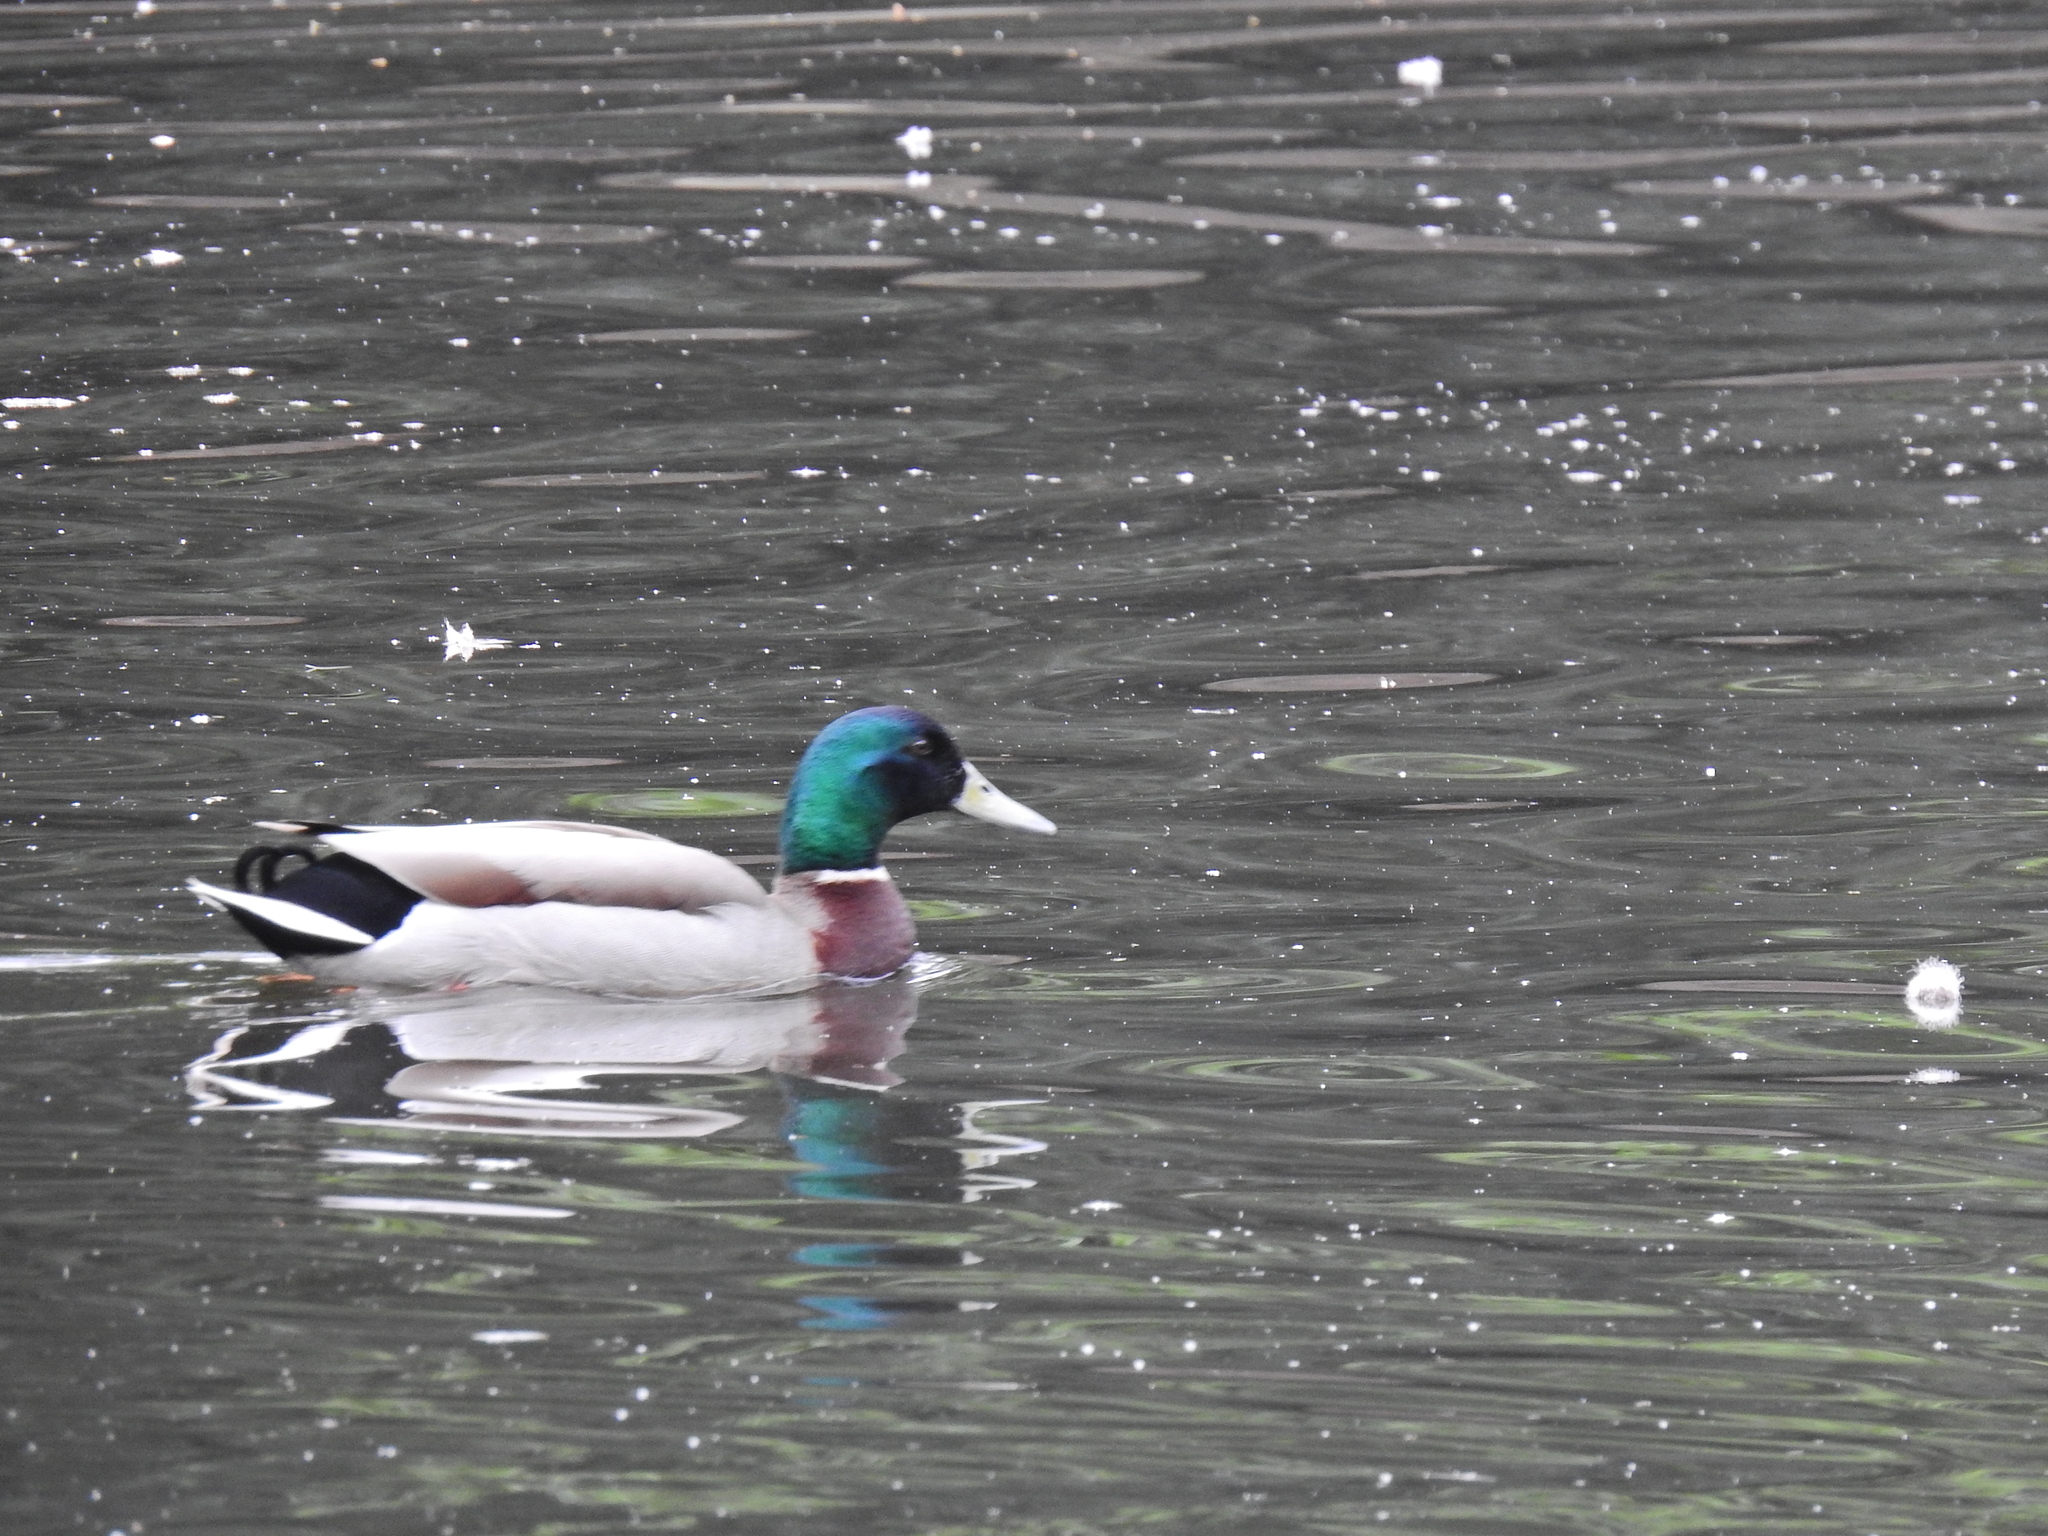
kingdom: Animalia
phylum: Chordata
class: Aves
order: Anseriformes
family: Anatidae
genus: Anas
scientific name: Anas platyrhynchos
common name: Mallard
